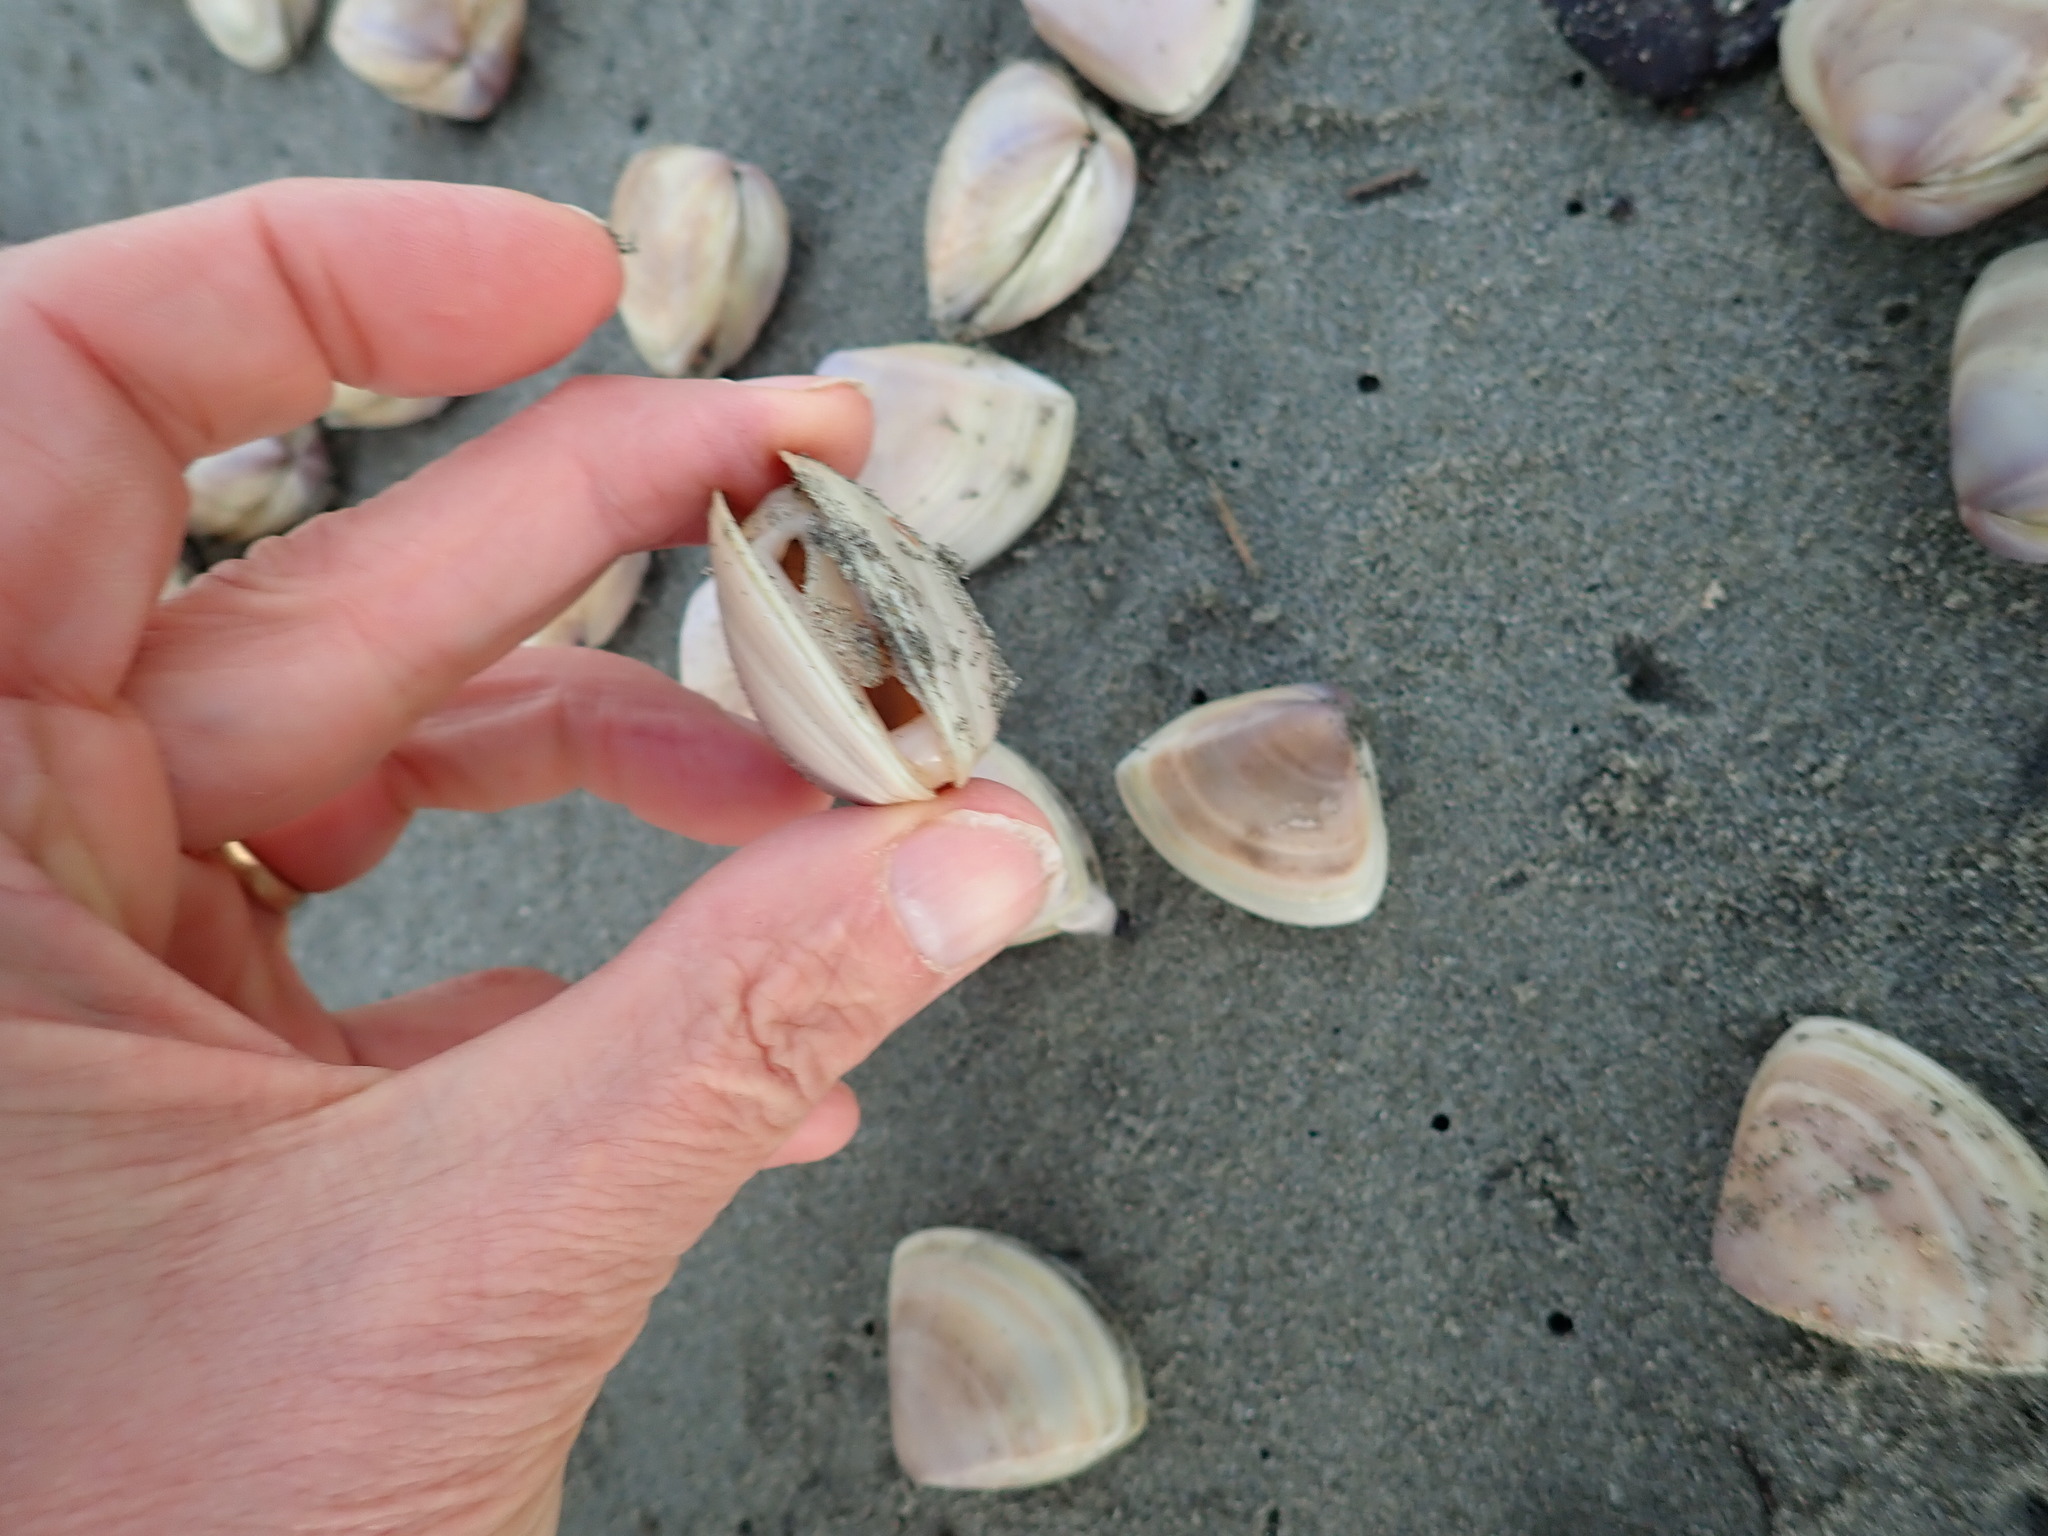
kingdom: Animalia
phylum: Mollusca
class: Bivalvia
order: Venerida
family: Mactridae
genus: Crassula
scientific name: Crassula aequilatera
